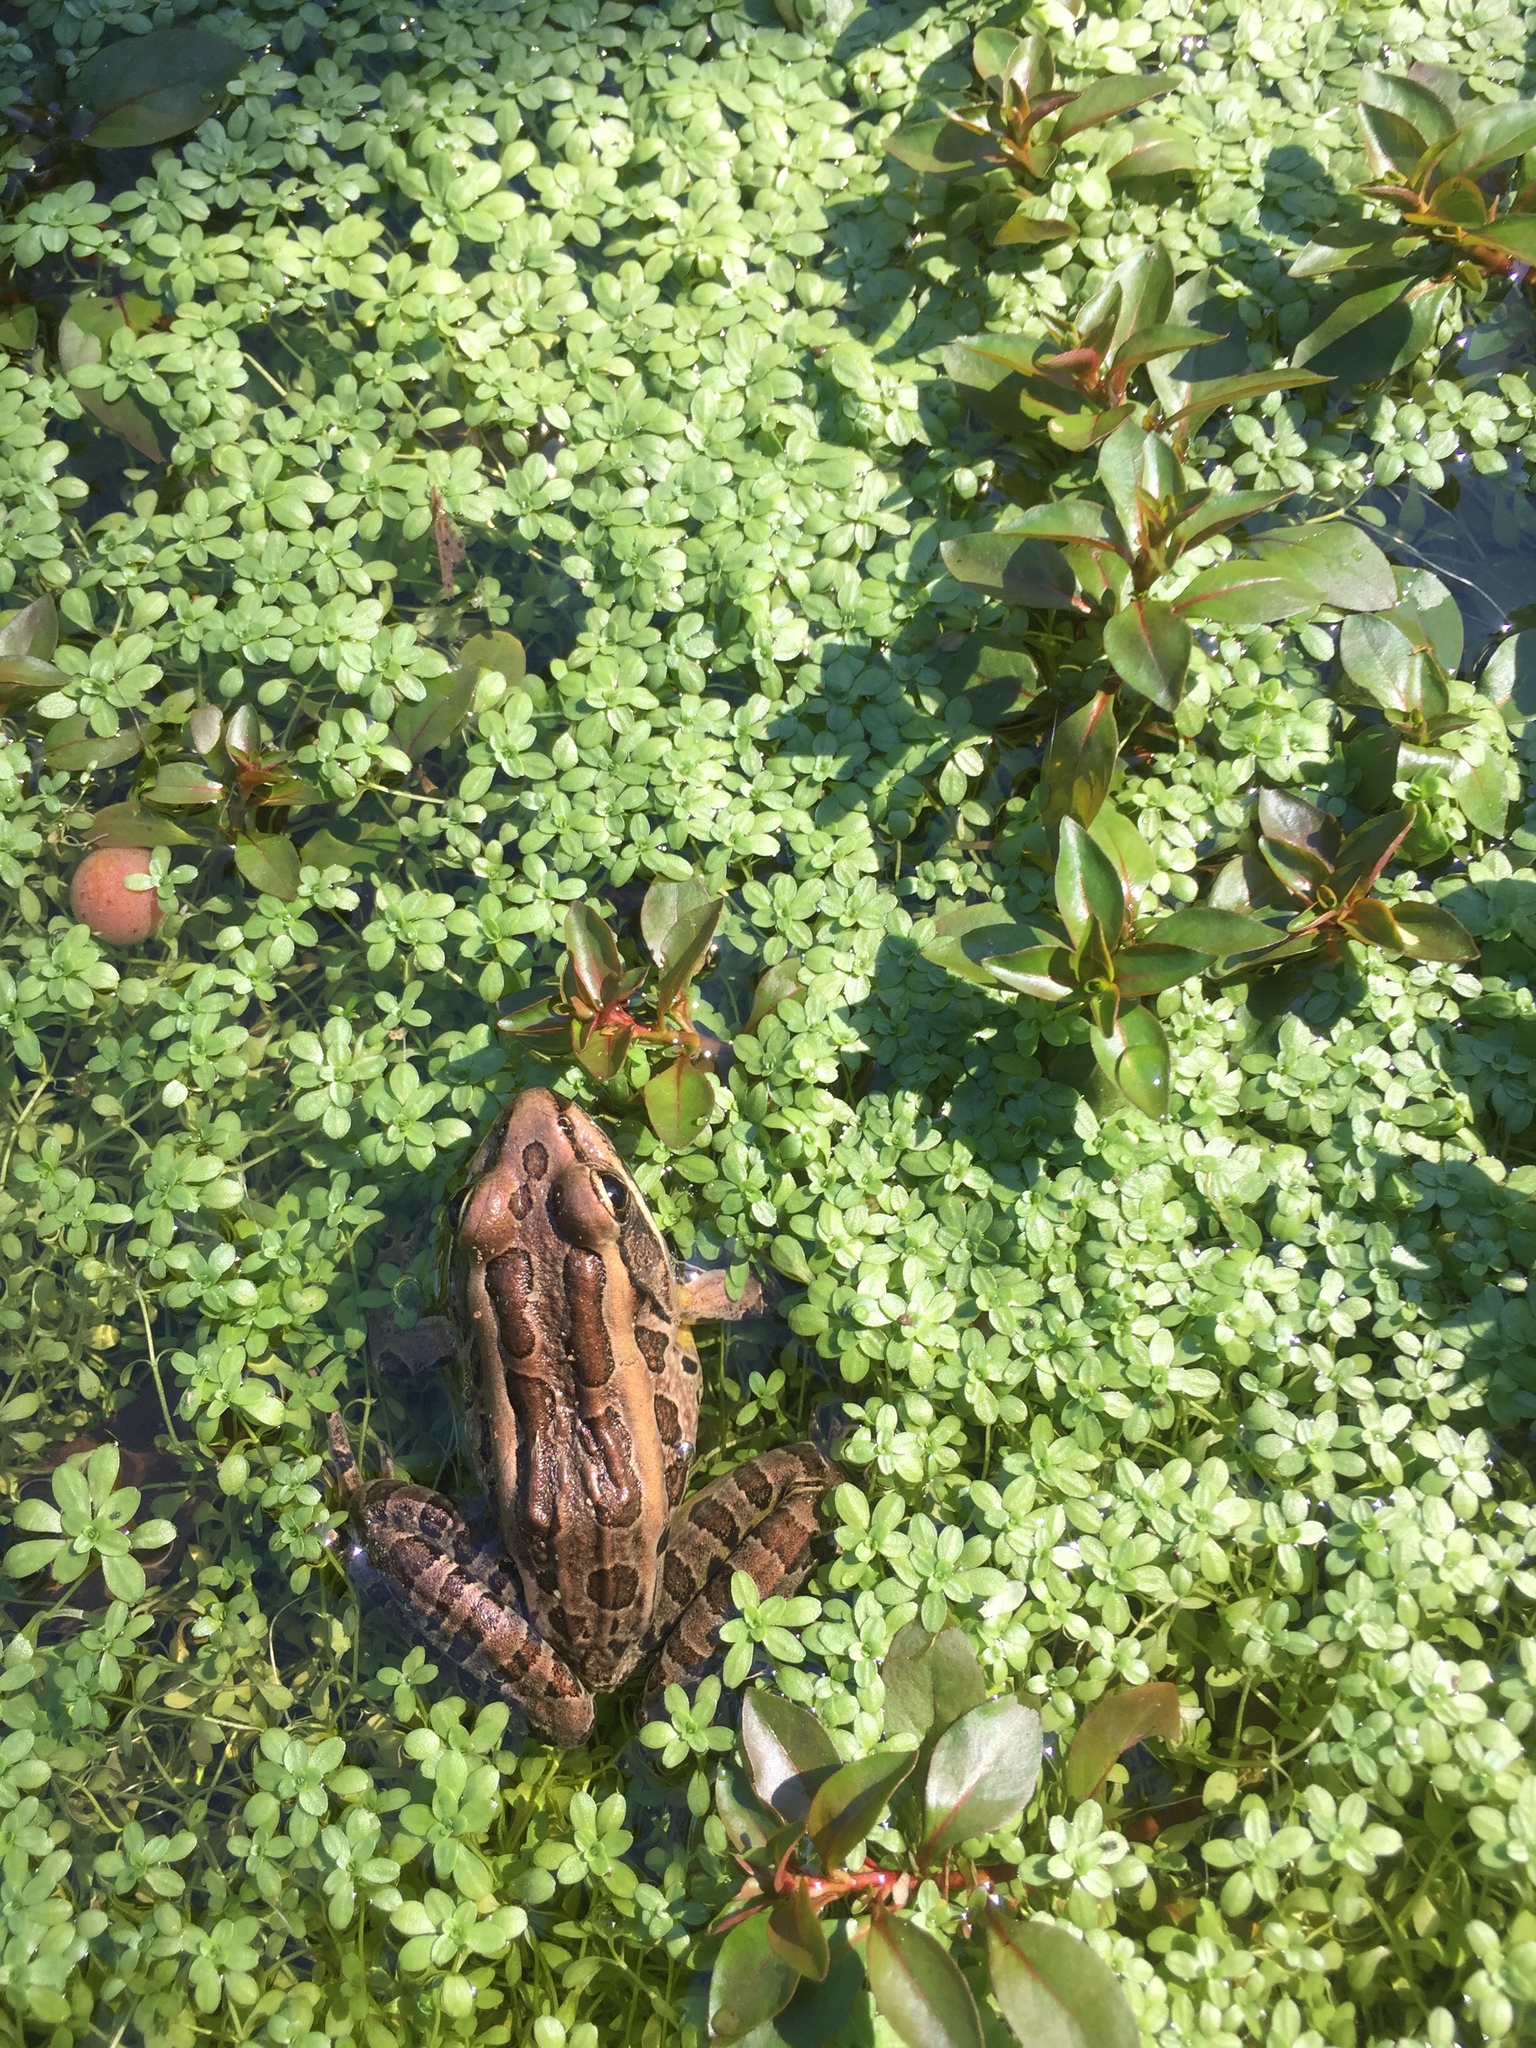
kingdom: Animalia
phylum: Chordata
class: Amphibia
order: Anura
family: Ranidae
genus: Lithobates
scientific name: Lithobates palustris
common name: Pickerel frog
